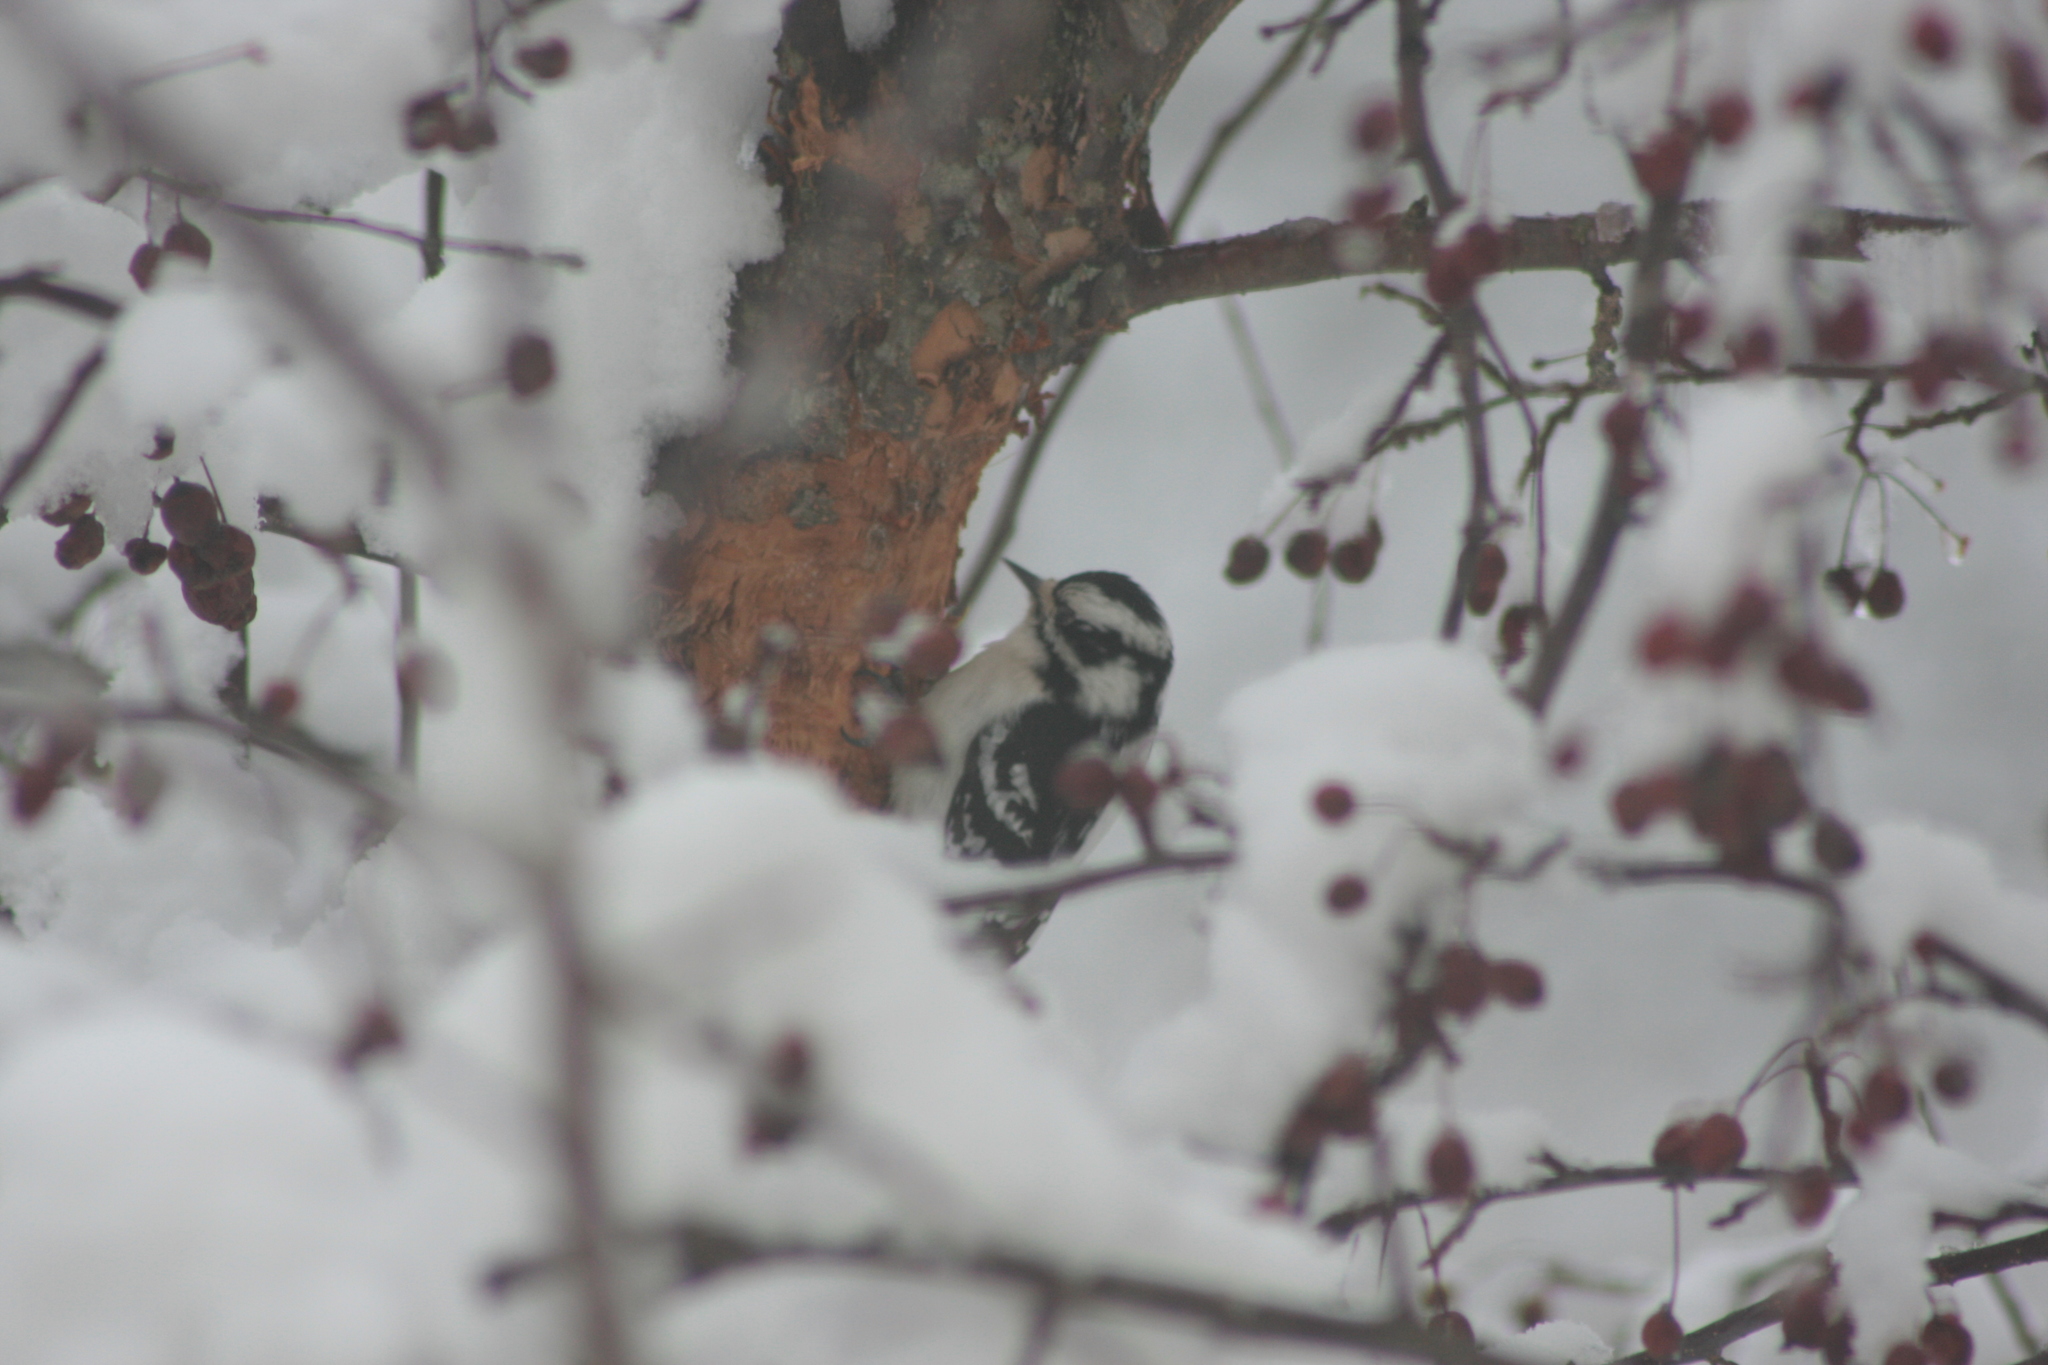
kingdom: Animalia
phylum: Chordata
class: Aves
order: Piciformes
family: Picidae
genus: Dryobates
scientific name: Dryobates pubescens
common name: Downy woodpecker
